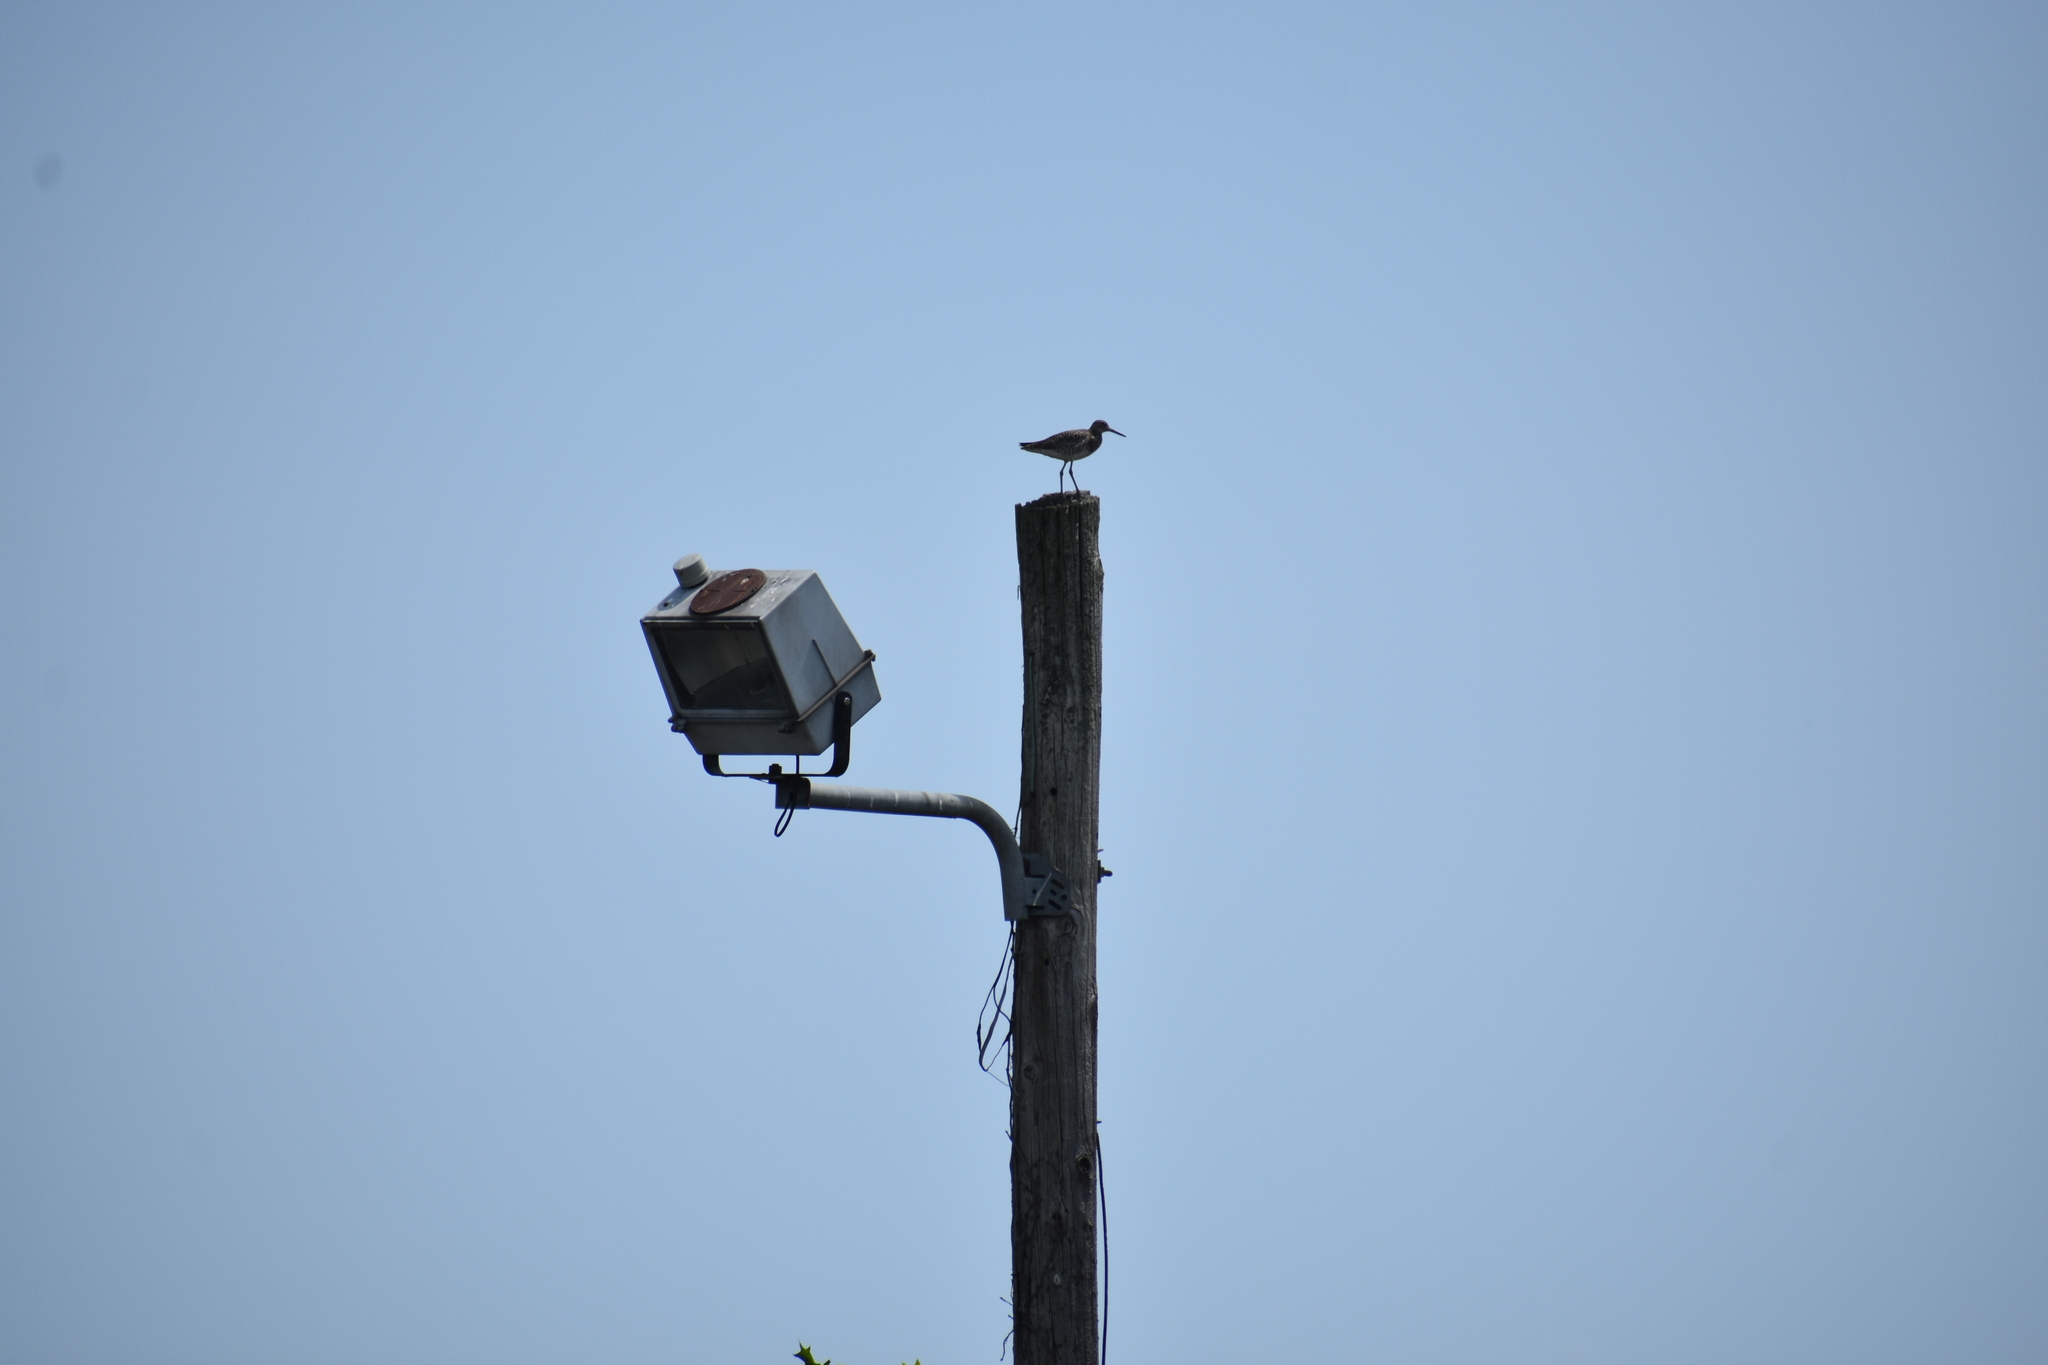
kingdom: Animalia
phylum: Chordata
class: Aves
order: Charadriiformes
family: Scolopacidae
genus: Tringa
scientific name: Tringa semipalmata
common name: Willet
